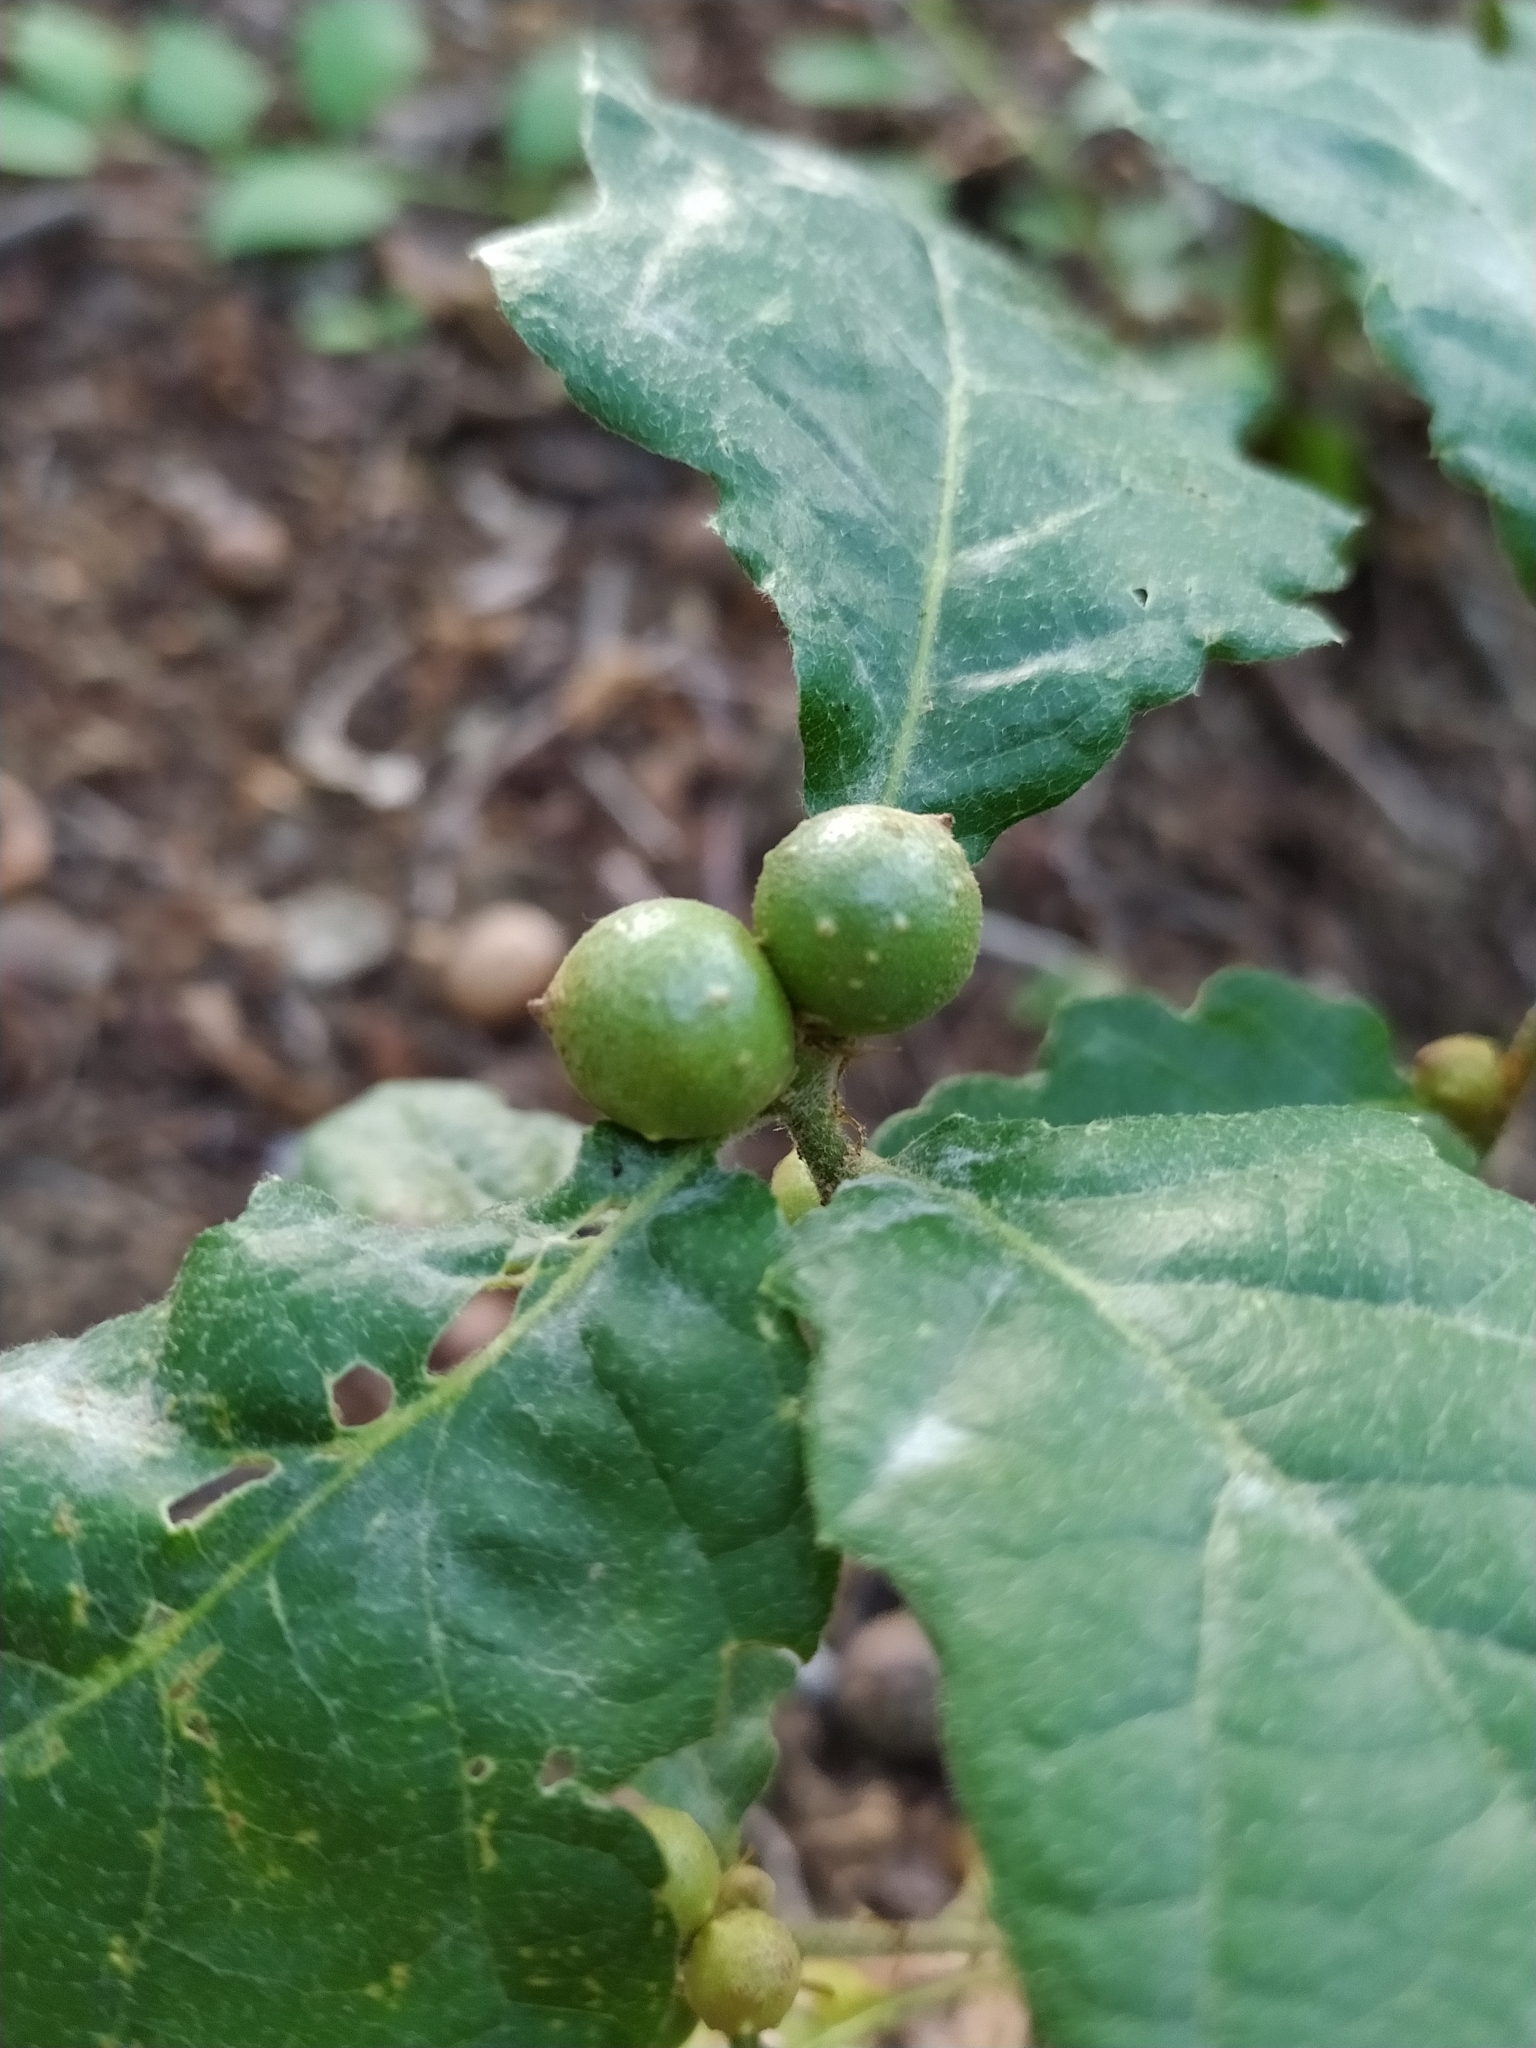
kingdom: Animalia
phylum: Arthropoda
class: Insecta
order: Hymenoptera
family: Cynipidae
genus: Andricus
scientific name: Andricus infectorius
